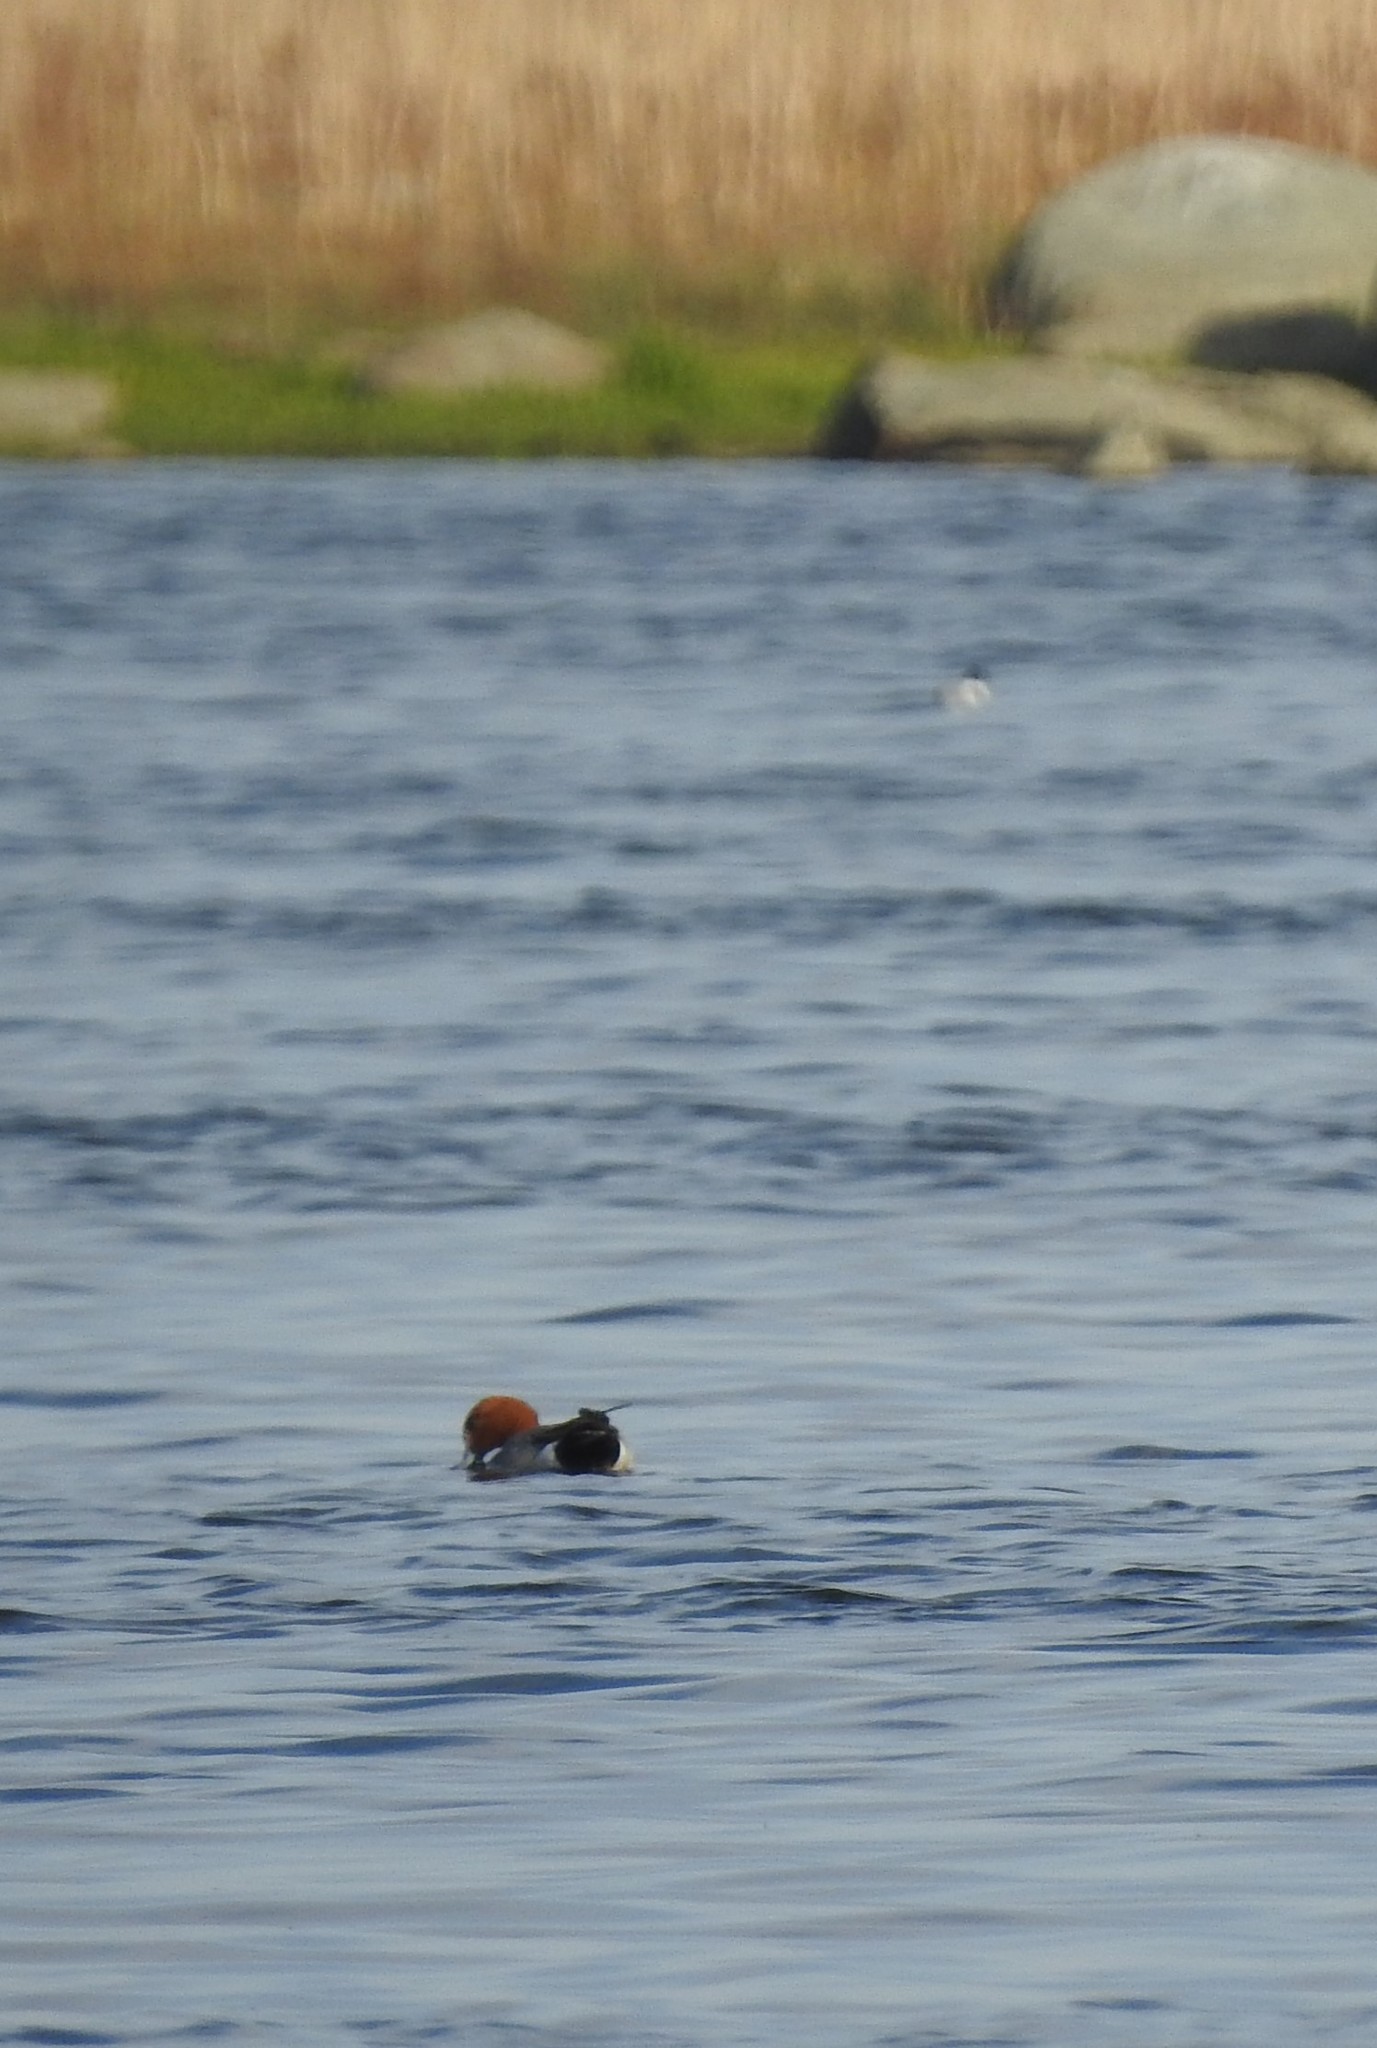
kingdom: Animalia
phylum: Chordata
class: Aves
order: Anseriformes
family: Anatidae
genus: Mareca
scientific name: Mareca penelope
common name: Eurasian wigeon
